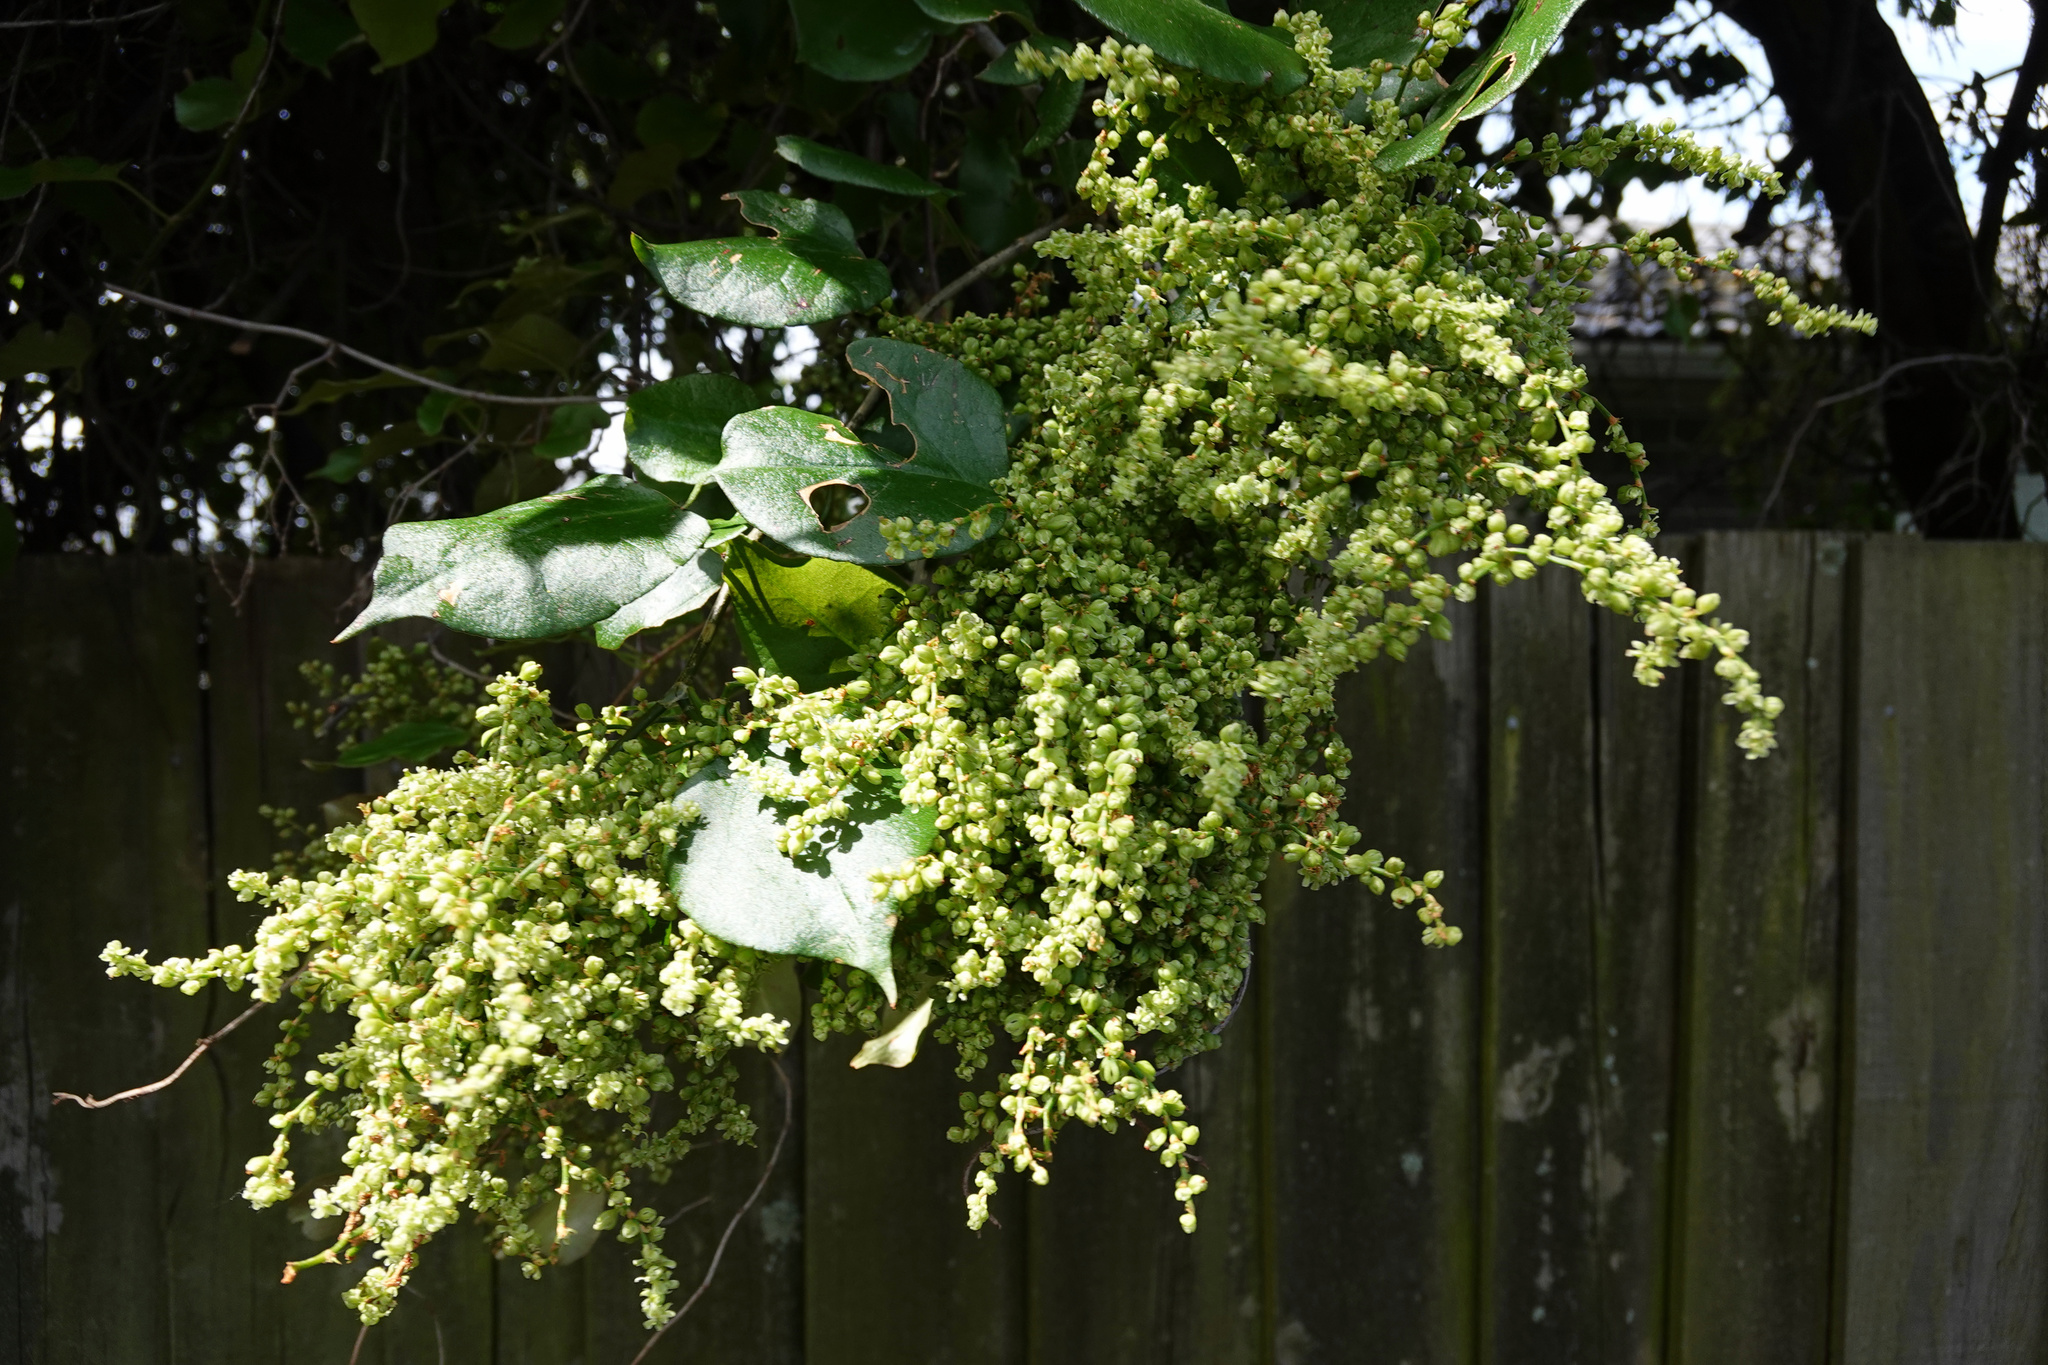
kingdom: Plantae
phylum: Tracheophyta
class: Magnoliopsida
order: Caryophyllales
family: Polygonaceae
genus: Muehlenbeckia
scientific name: Muehlenbeckia australis
